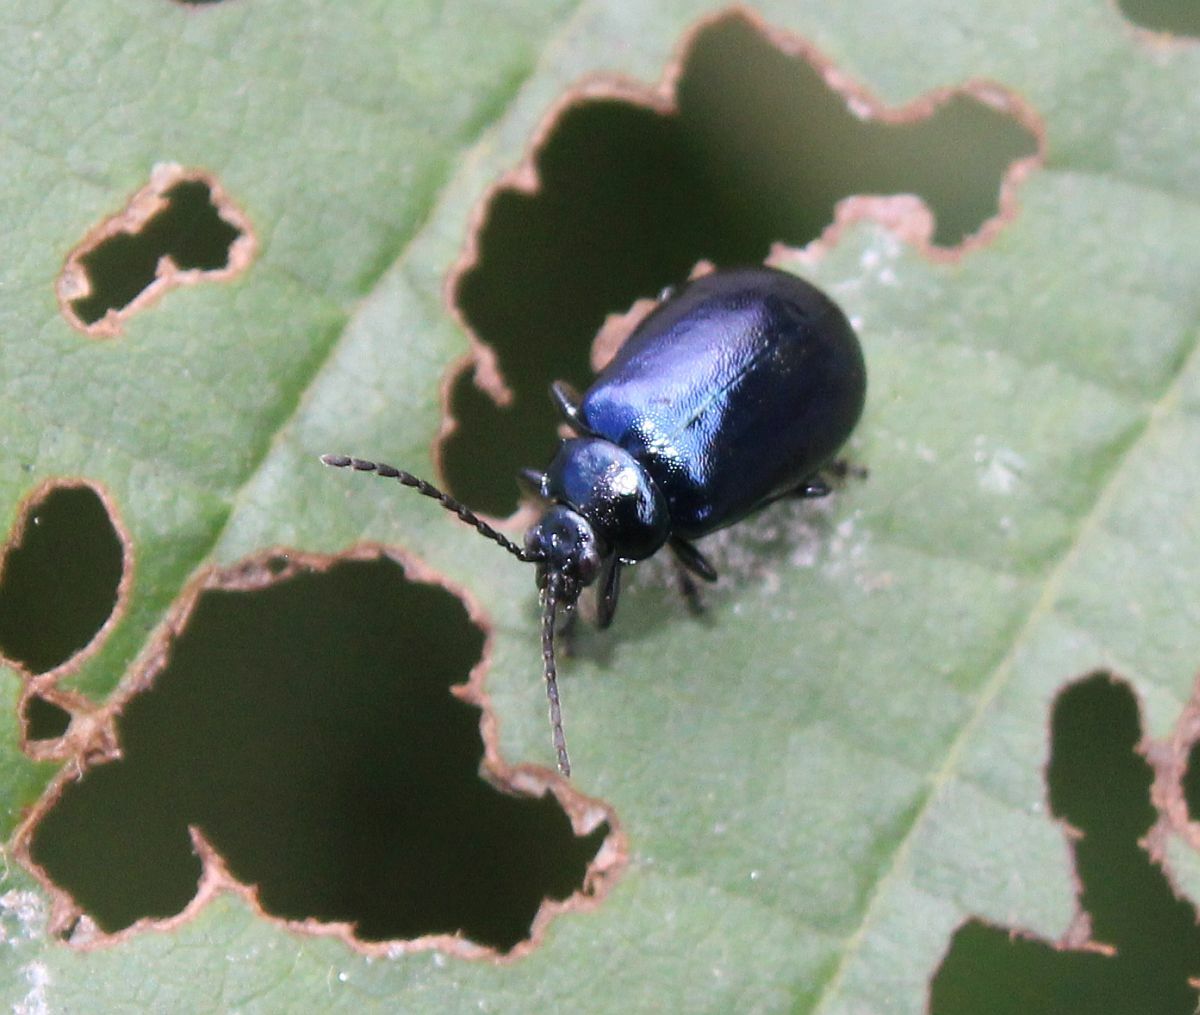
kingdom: Animalia
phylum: Arthropoda
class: Insecta
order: Coleoptera
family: Chrysomelidae
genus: Agelastica
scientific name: Agelastica alni
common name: Alder leaf beetle
